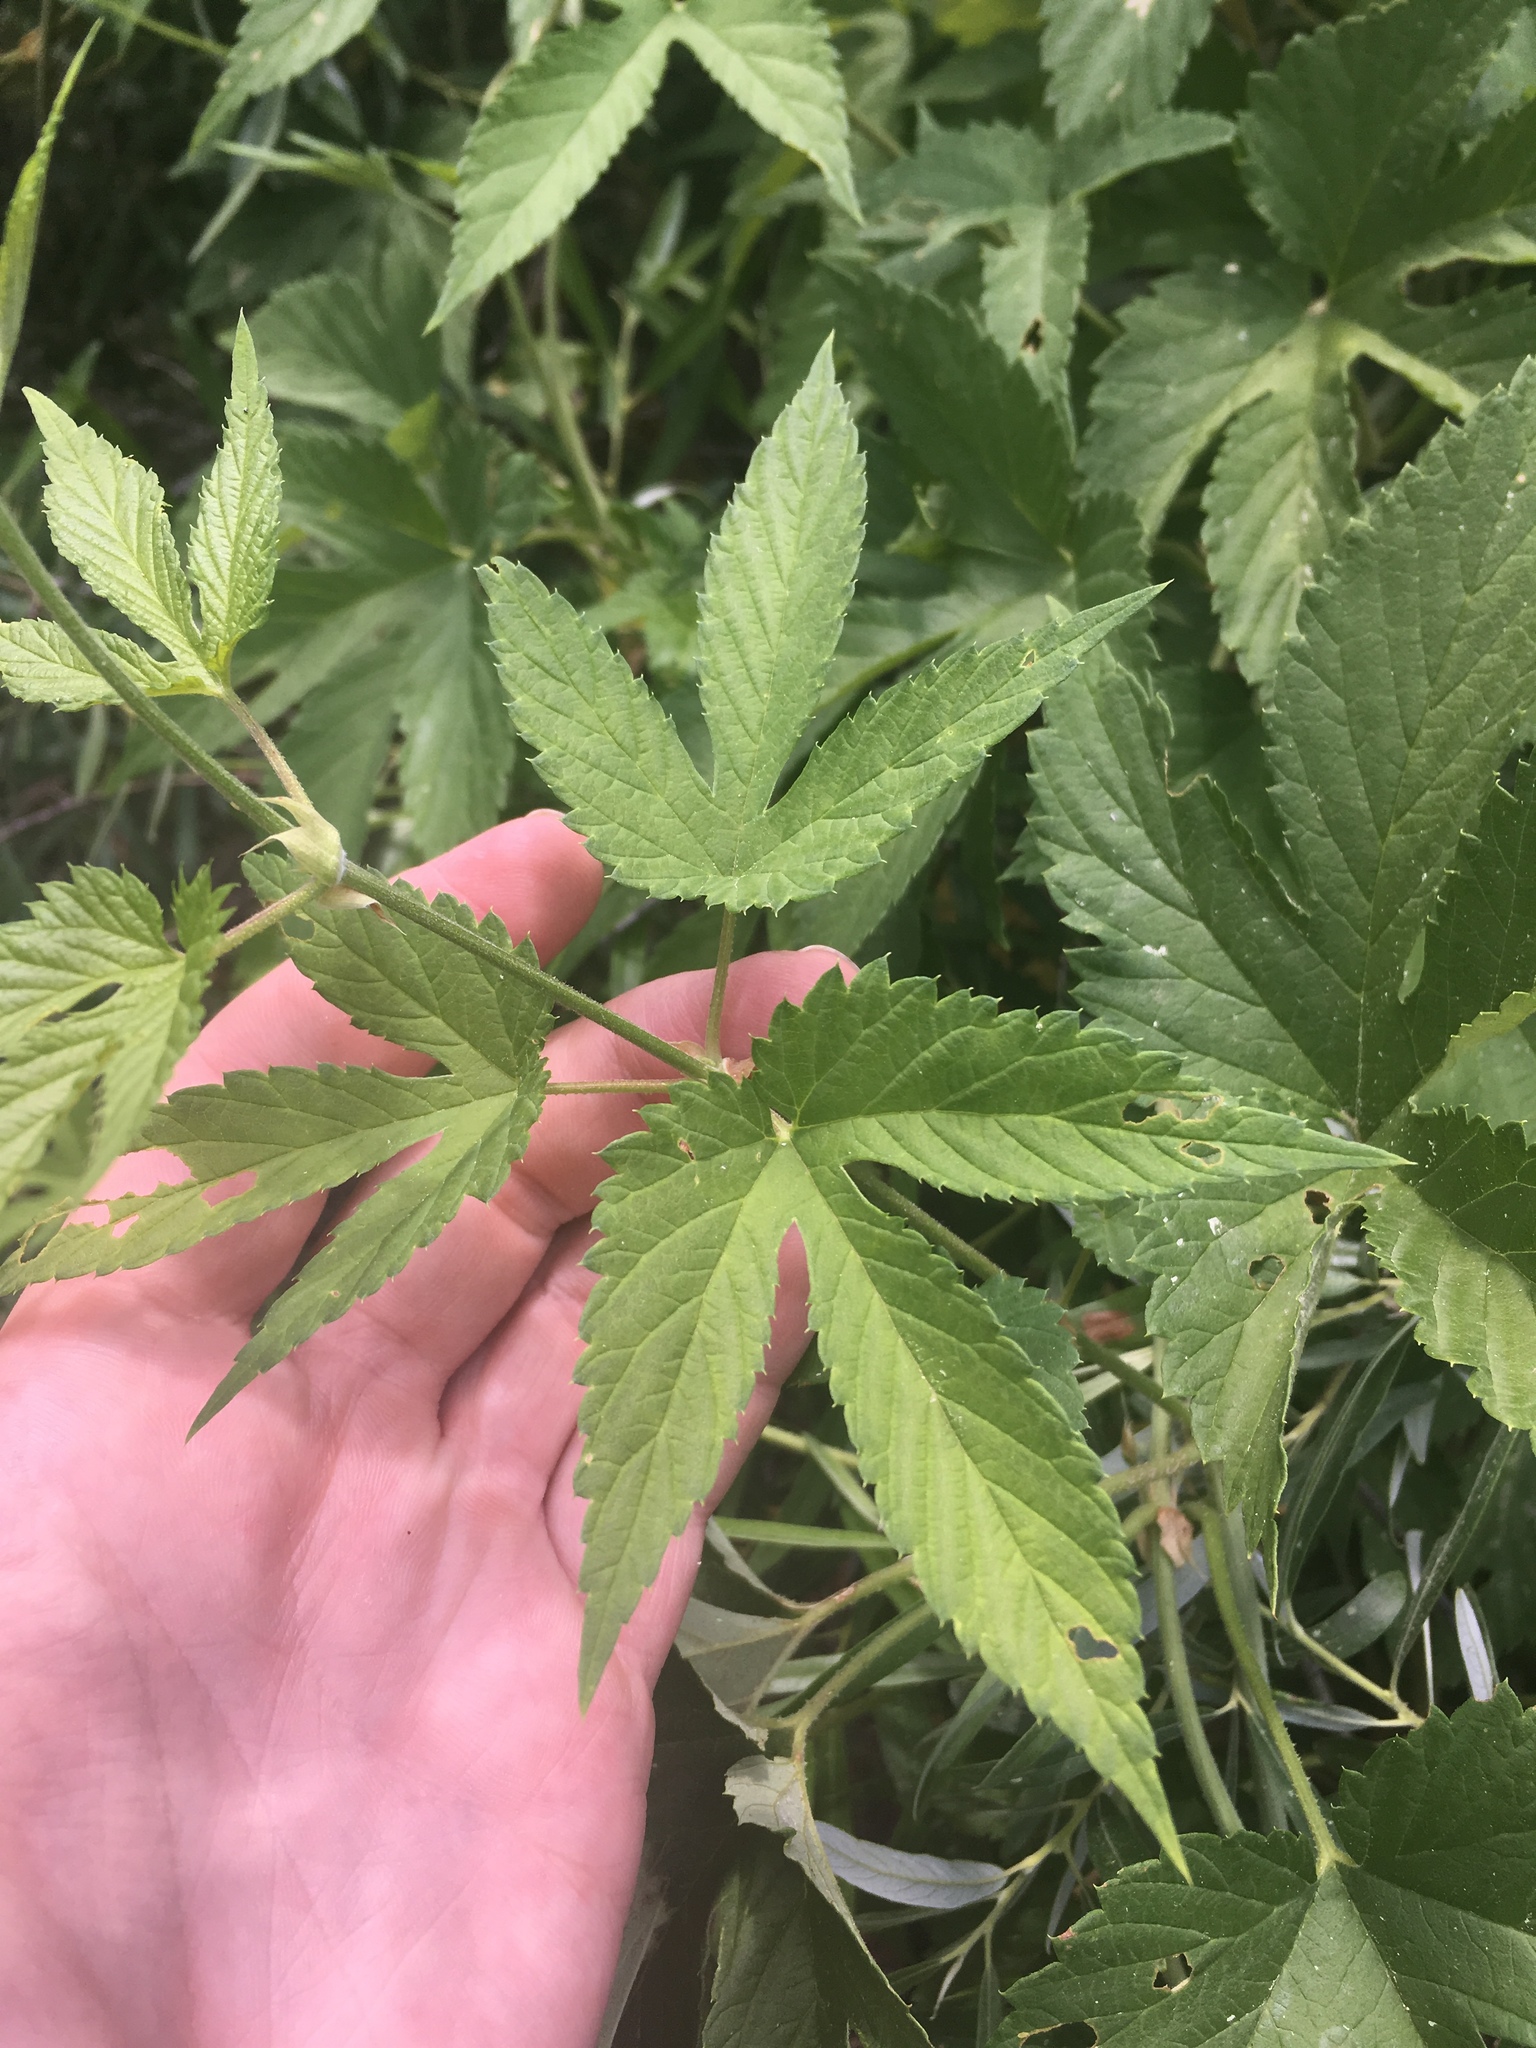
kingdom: Plantae
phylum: Tracheophyta
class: Magnoliopsida
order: Rosales
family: Cannabaceae
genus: Humulus
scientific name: Humulus lupulus
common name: Hop
